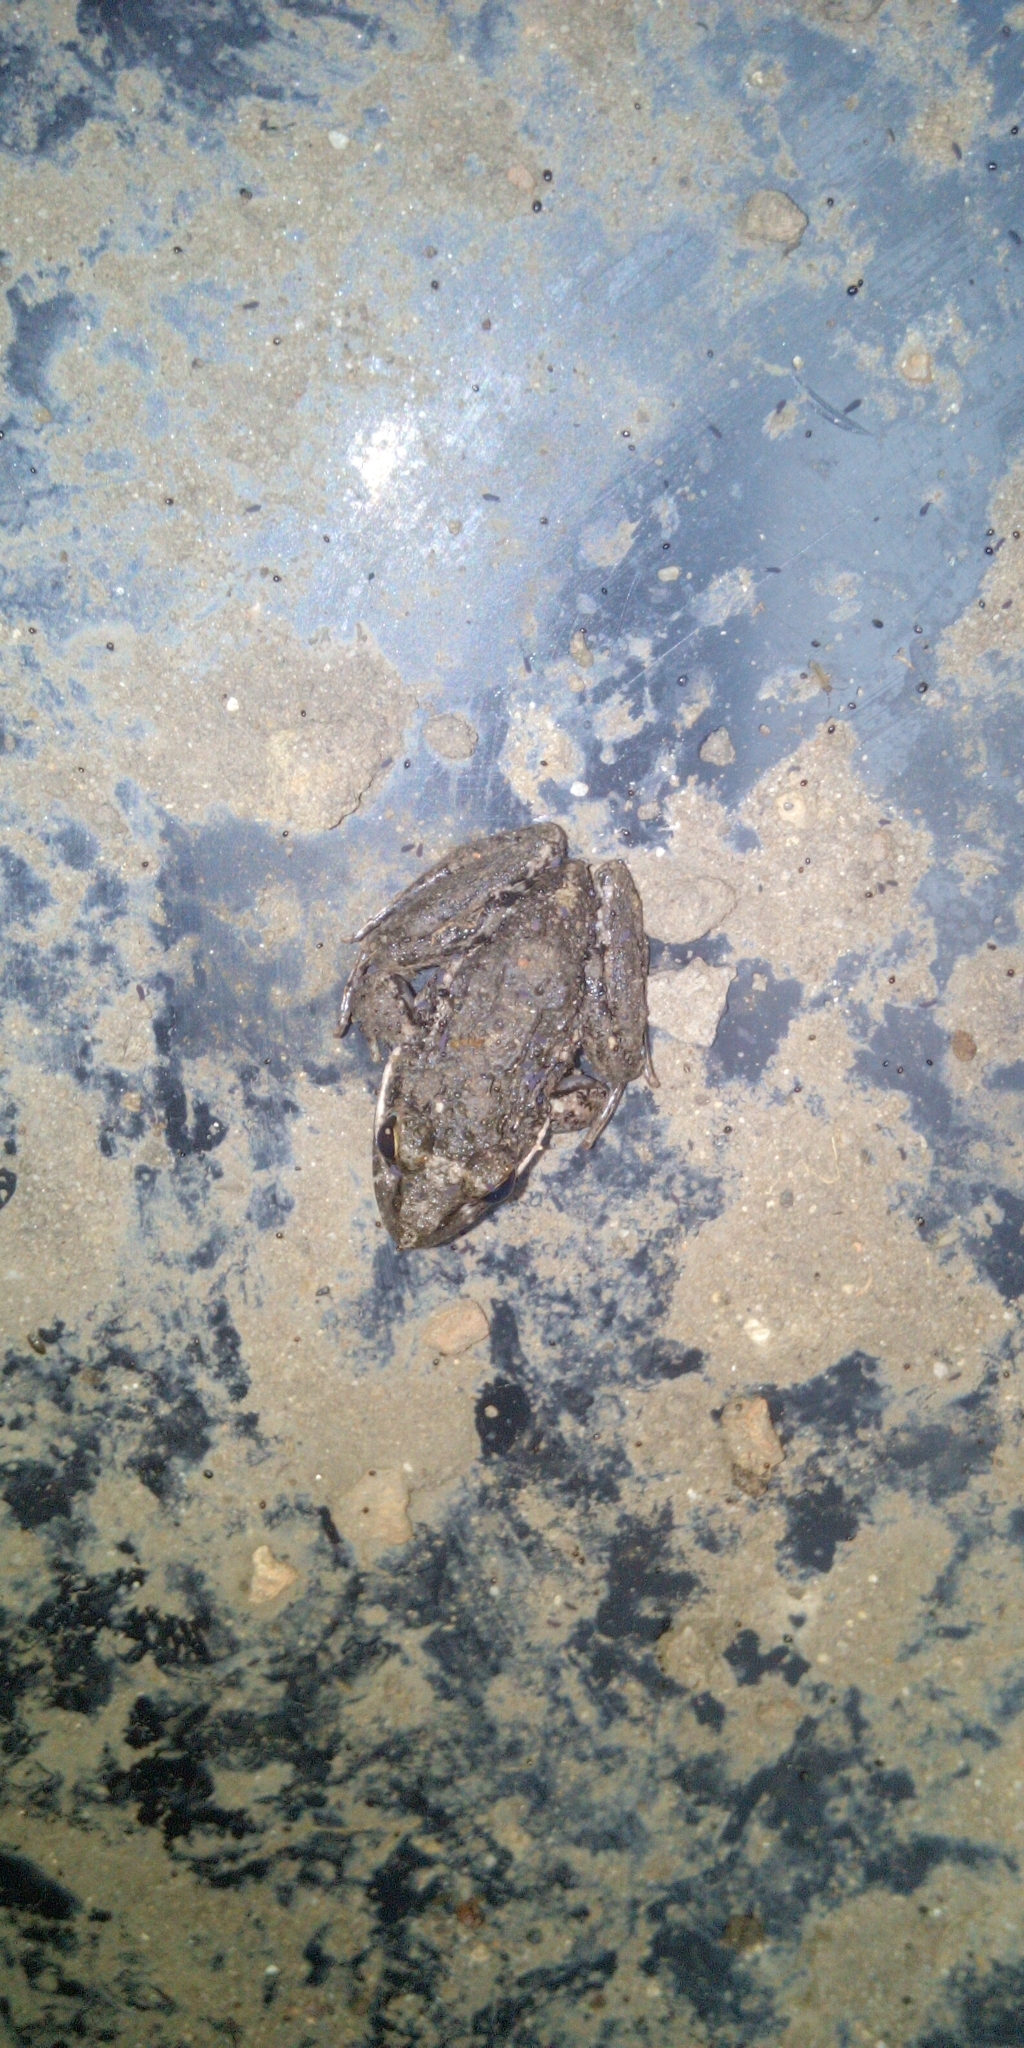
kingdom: Animalia
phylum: Chordata
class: Amphibia
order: Anura
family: Pyxicephalidae
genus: Strongylopus
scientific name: Strongylopus grayii
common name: Gray's stream frog
